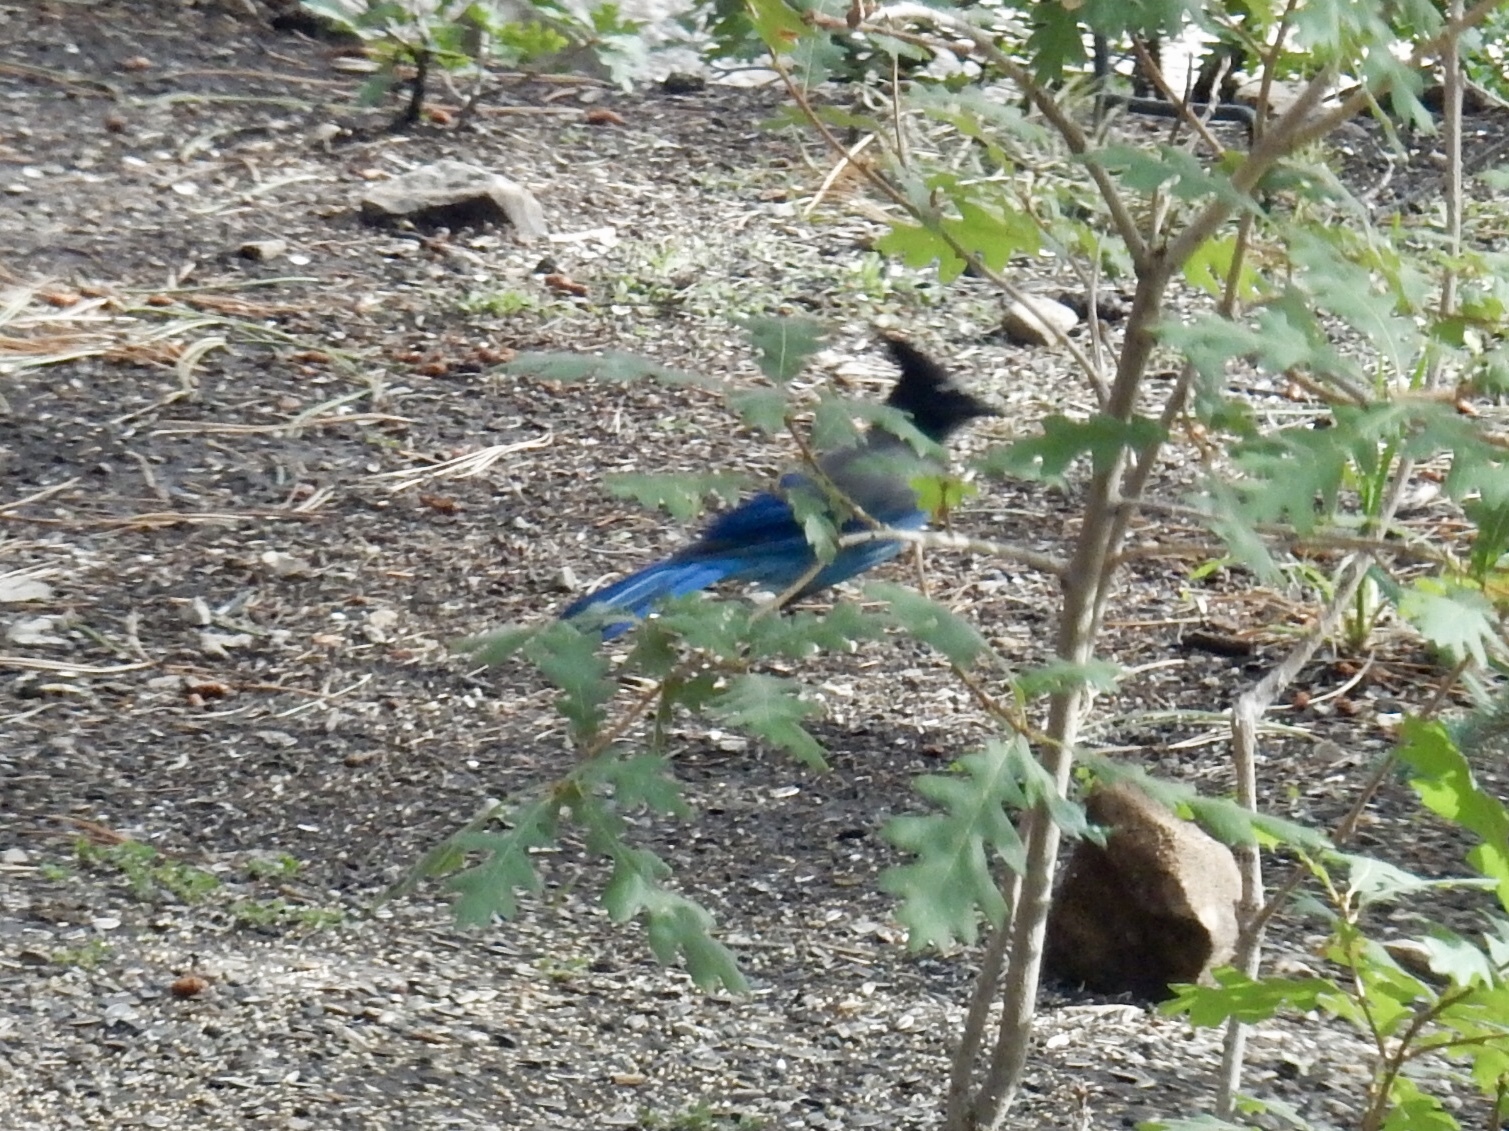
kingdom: Animalia
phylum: Chordata
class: Aves
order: Passeriformes
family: Corvidae
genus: Cyanocitta
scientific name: Cyanocitta stelleri
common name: Steller's jay
